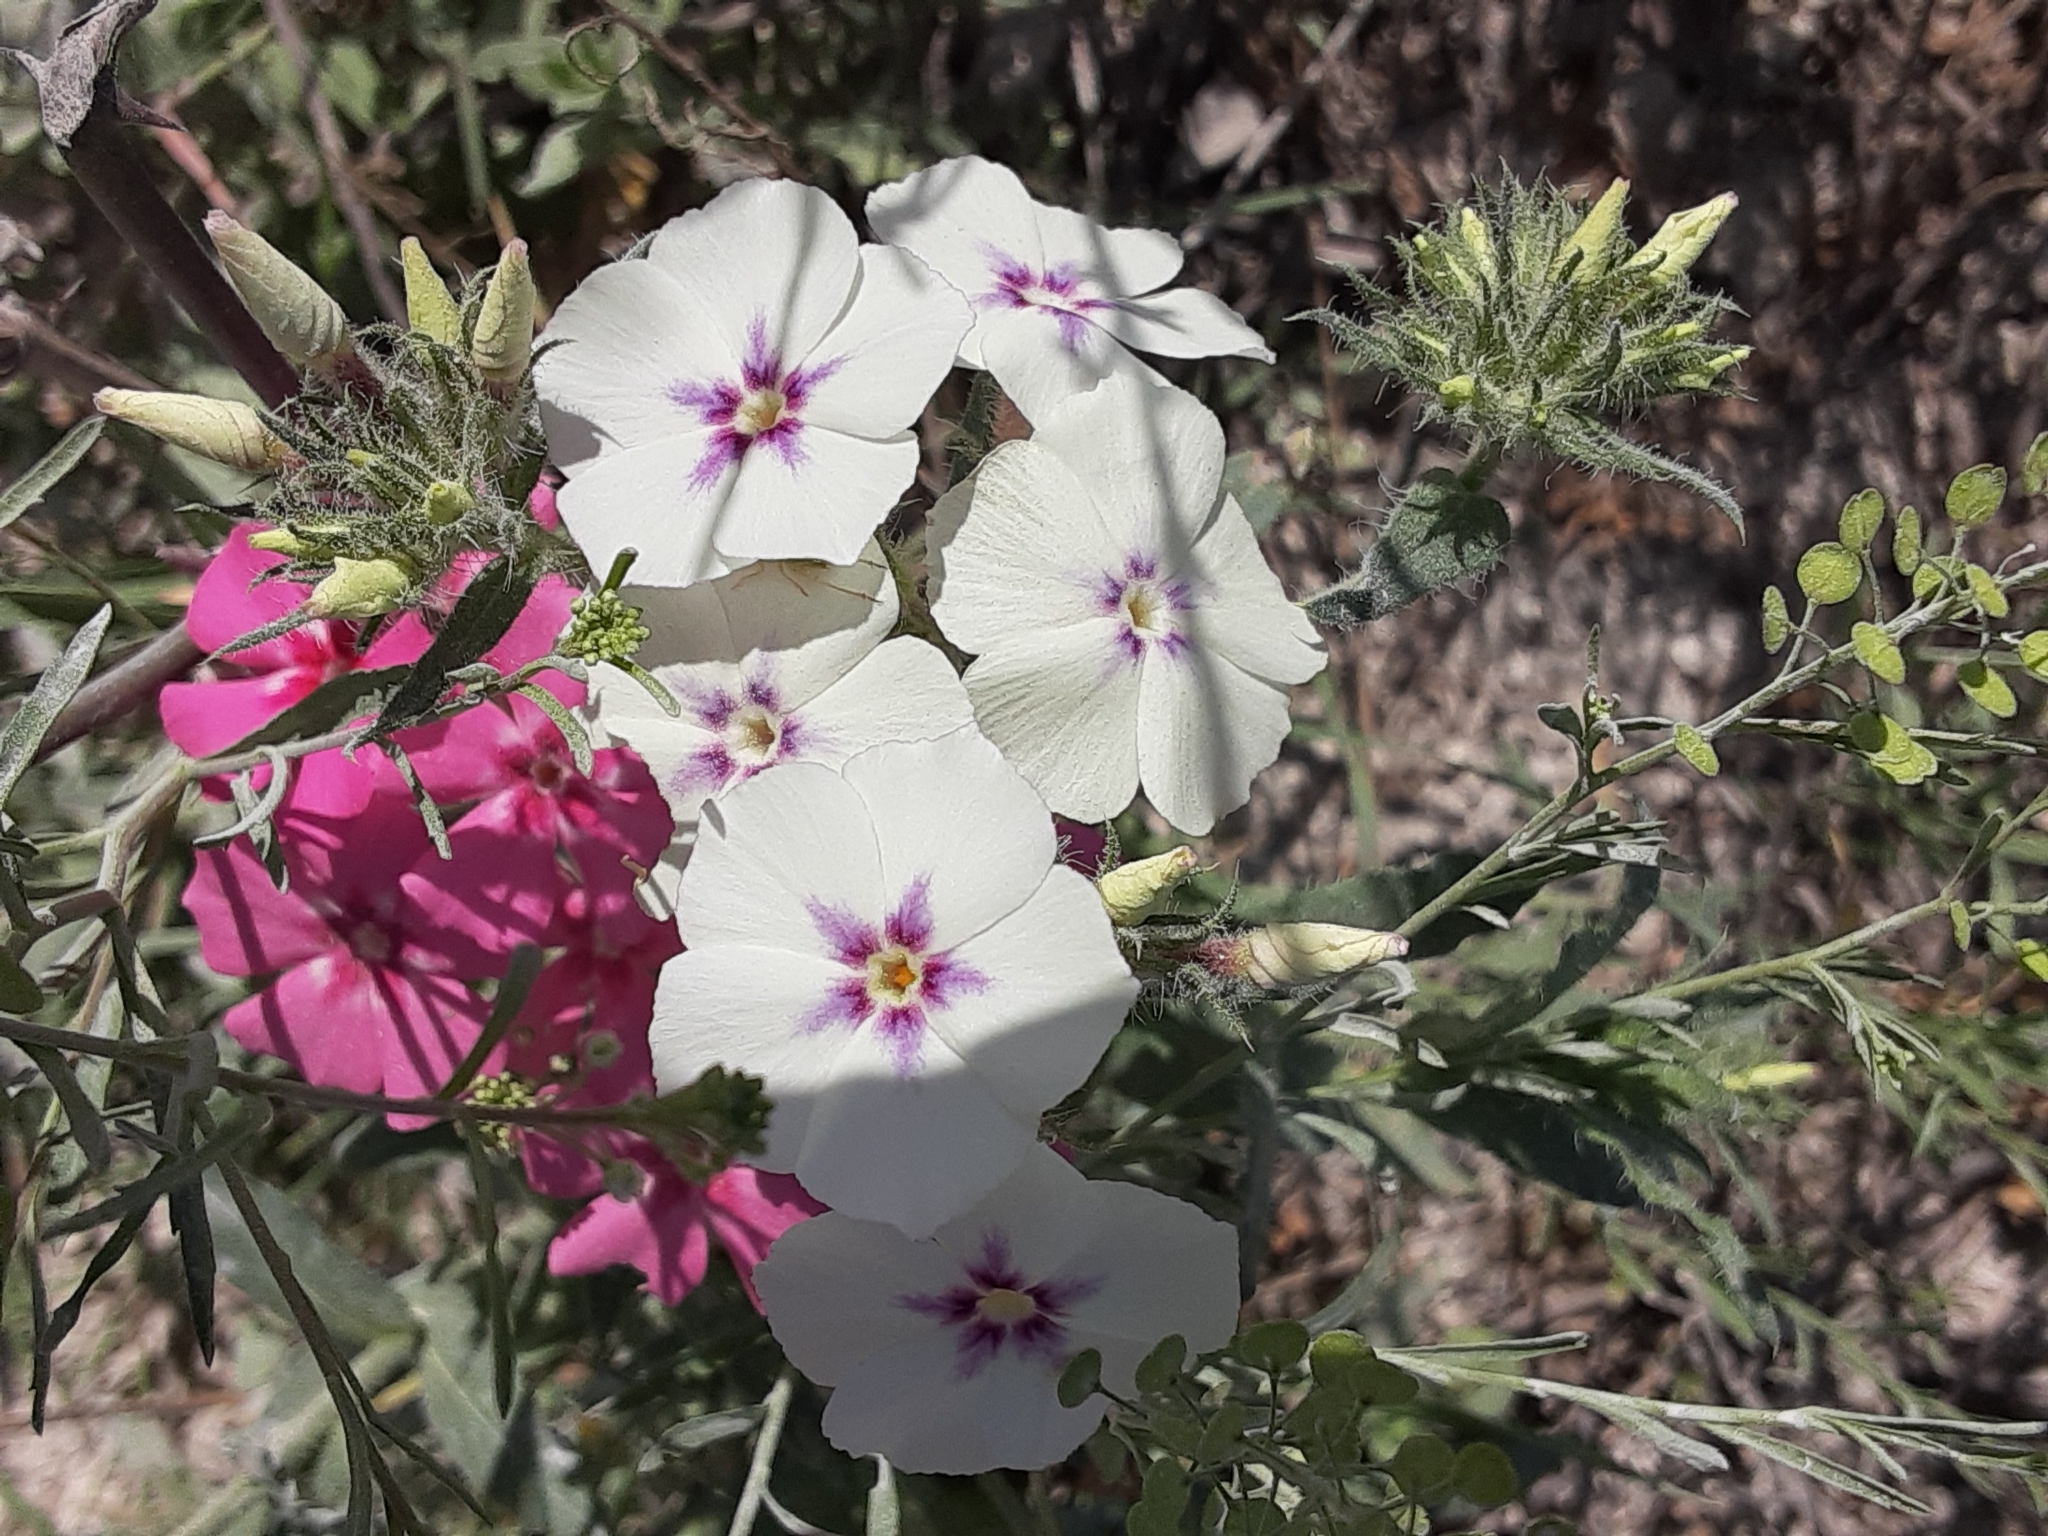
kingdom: Plantae
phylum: Tracheophyta
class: Magnoliopsida
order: Ericales
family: Polemoniaceae
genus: Phlox
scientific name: Phlox drummondii
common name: Drummond's phlox
